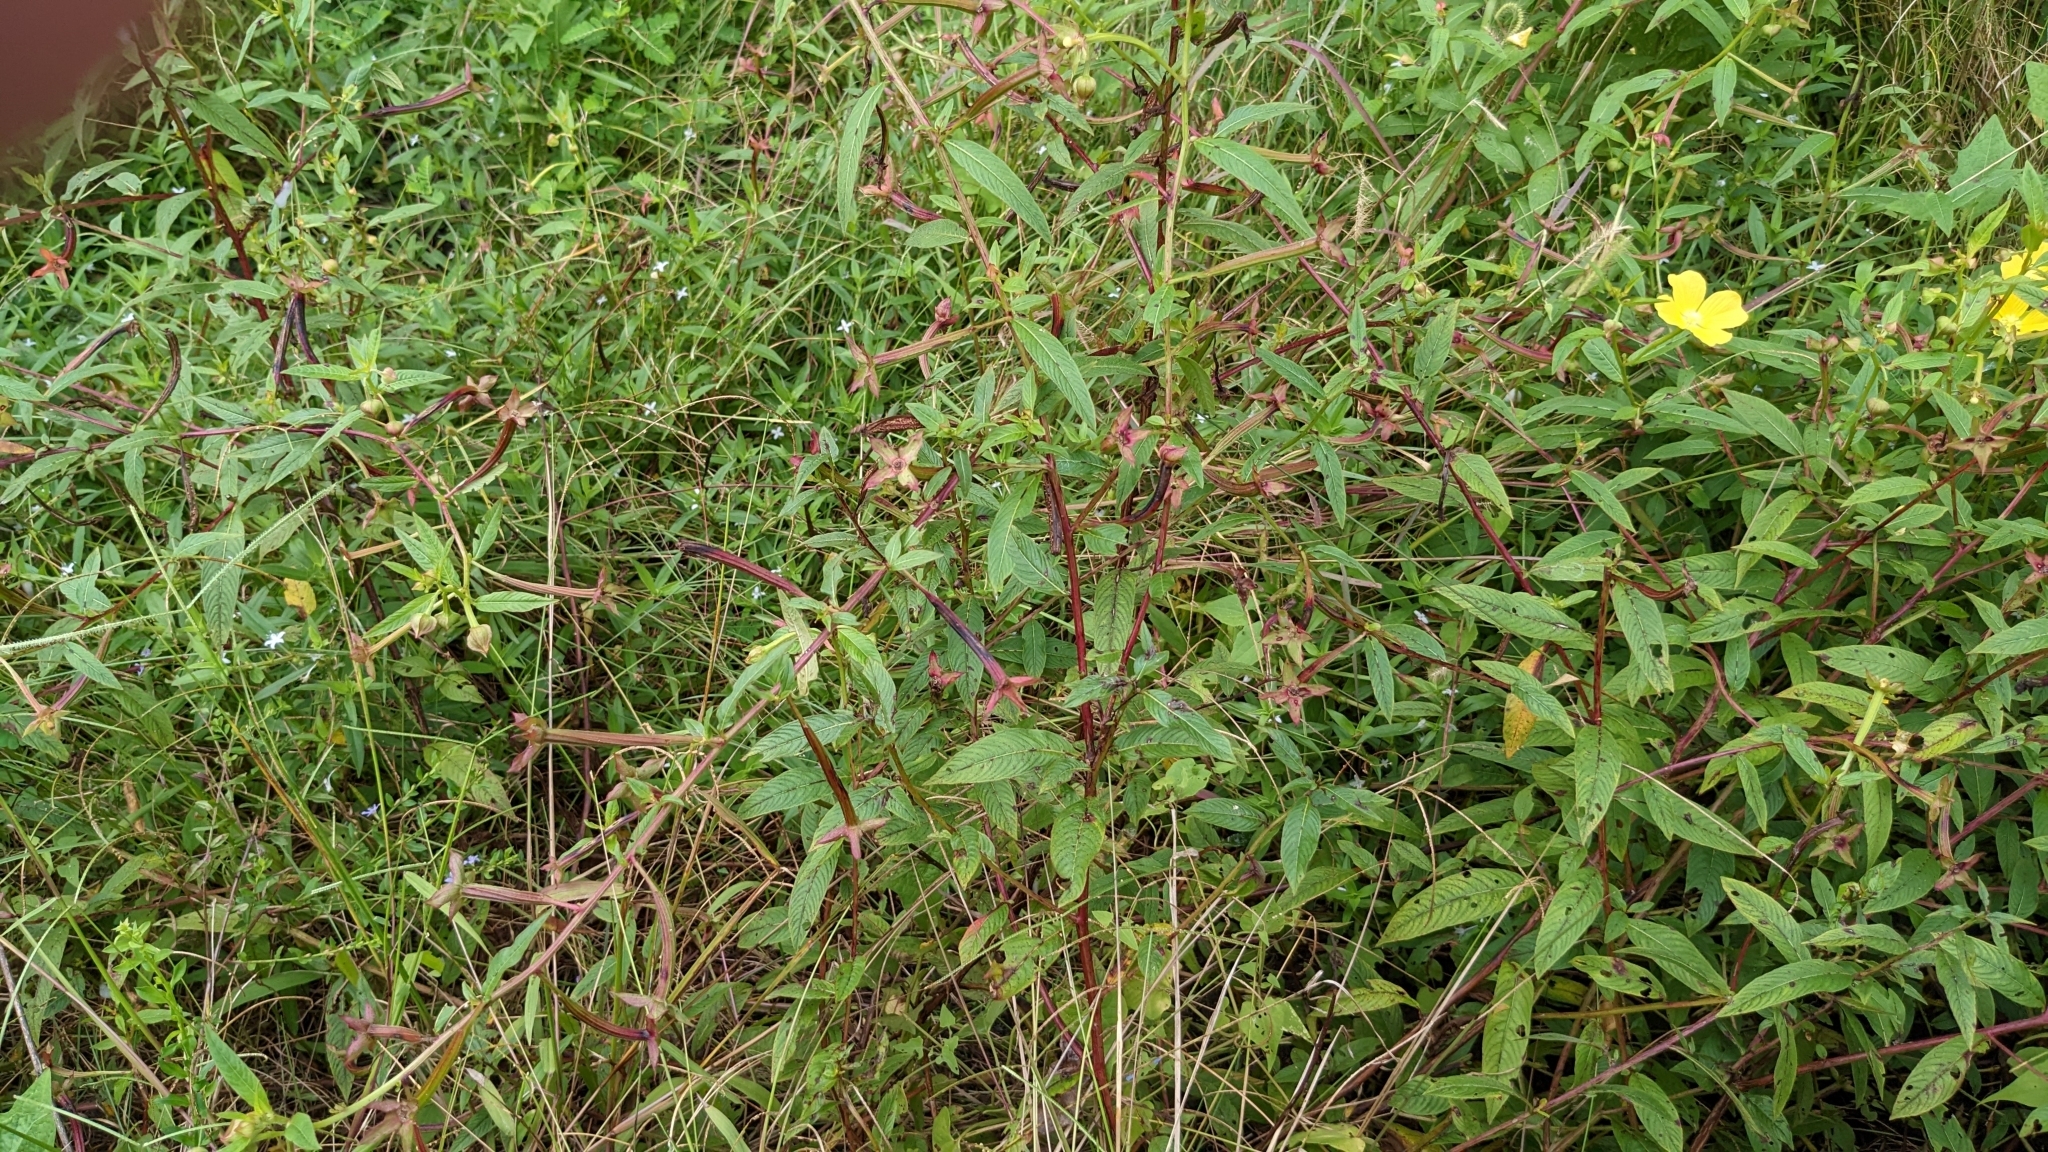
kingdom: Plantae
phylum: Tracheophyta
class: Magnoliopsida
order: Myrtales
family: Onagraceae
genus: Ludwigia
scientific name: Ludwigia octovalvis
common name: Water-primrose
